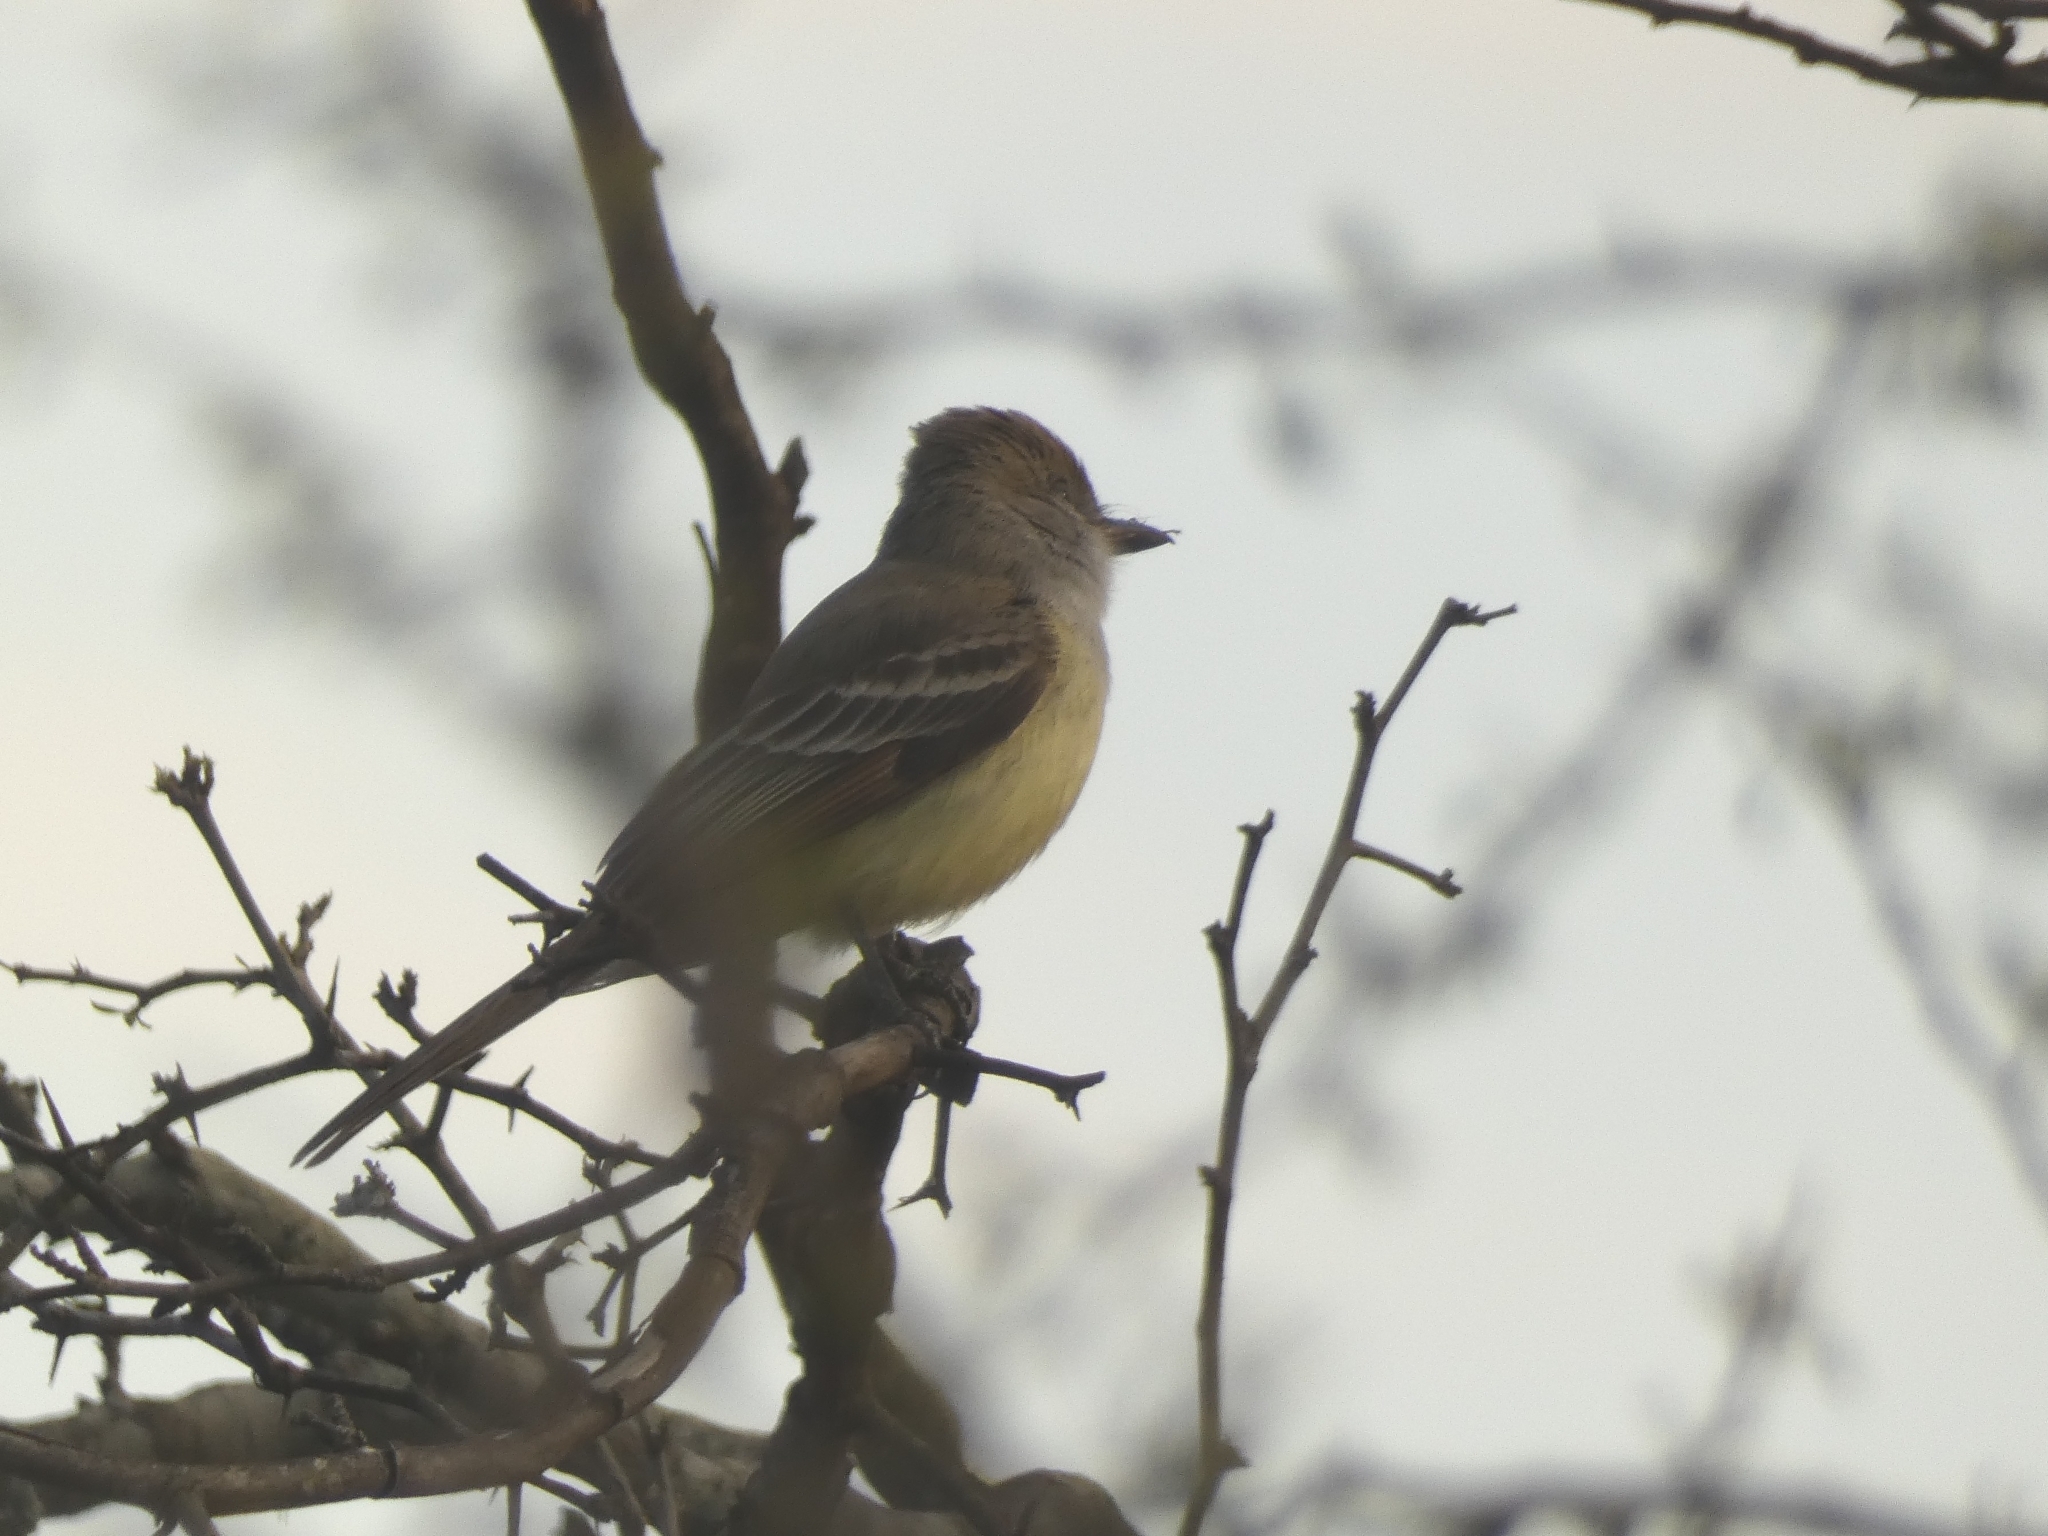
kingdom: Animalia
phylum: Chordata
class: Aves
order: Passeriformes
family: Tyrannidae
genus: Myiarchus
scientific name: Myiarchus tyrannulus
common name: Brown-crested flycatcher
